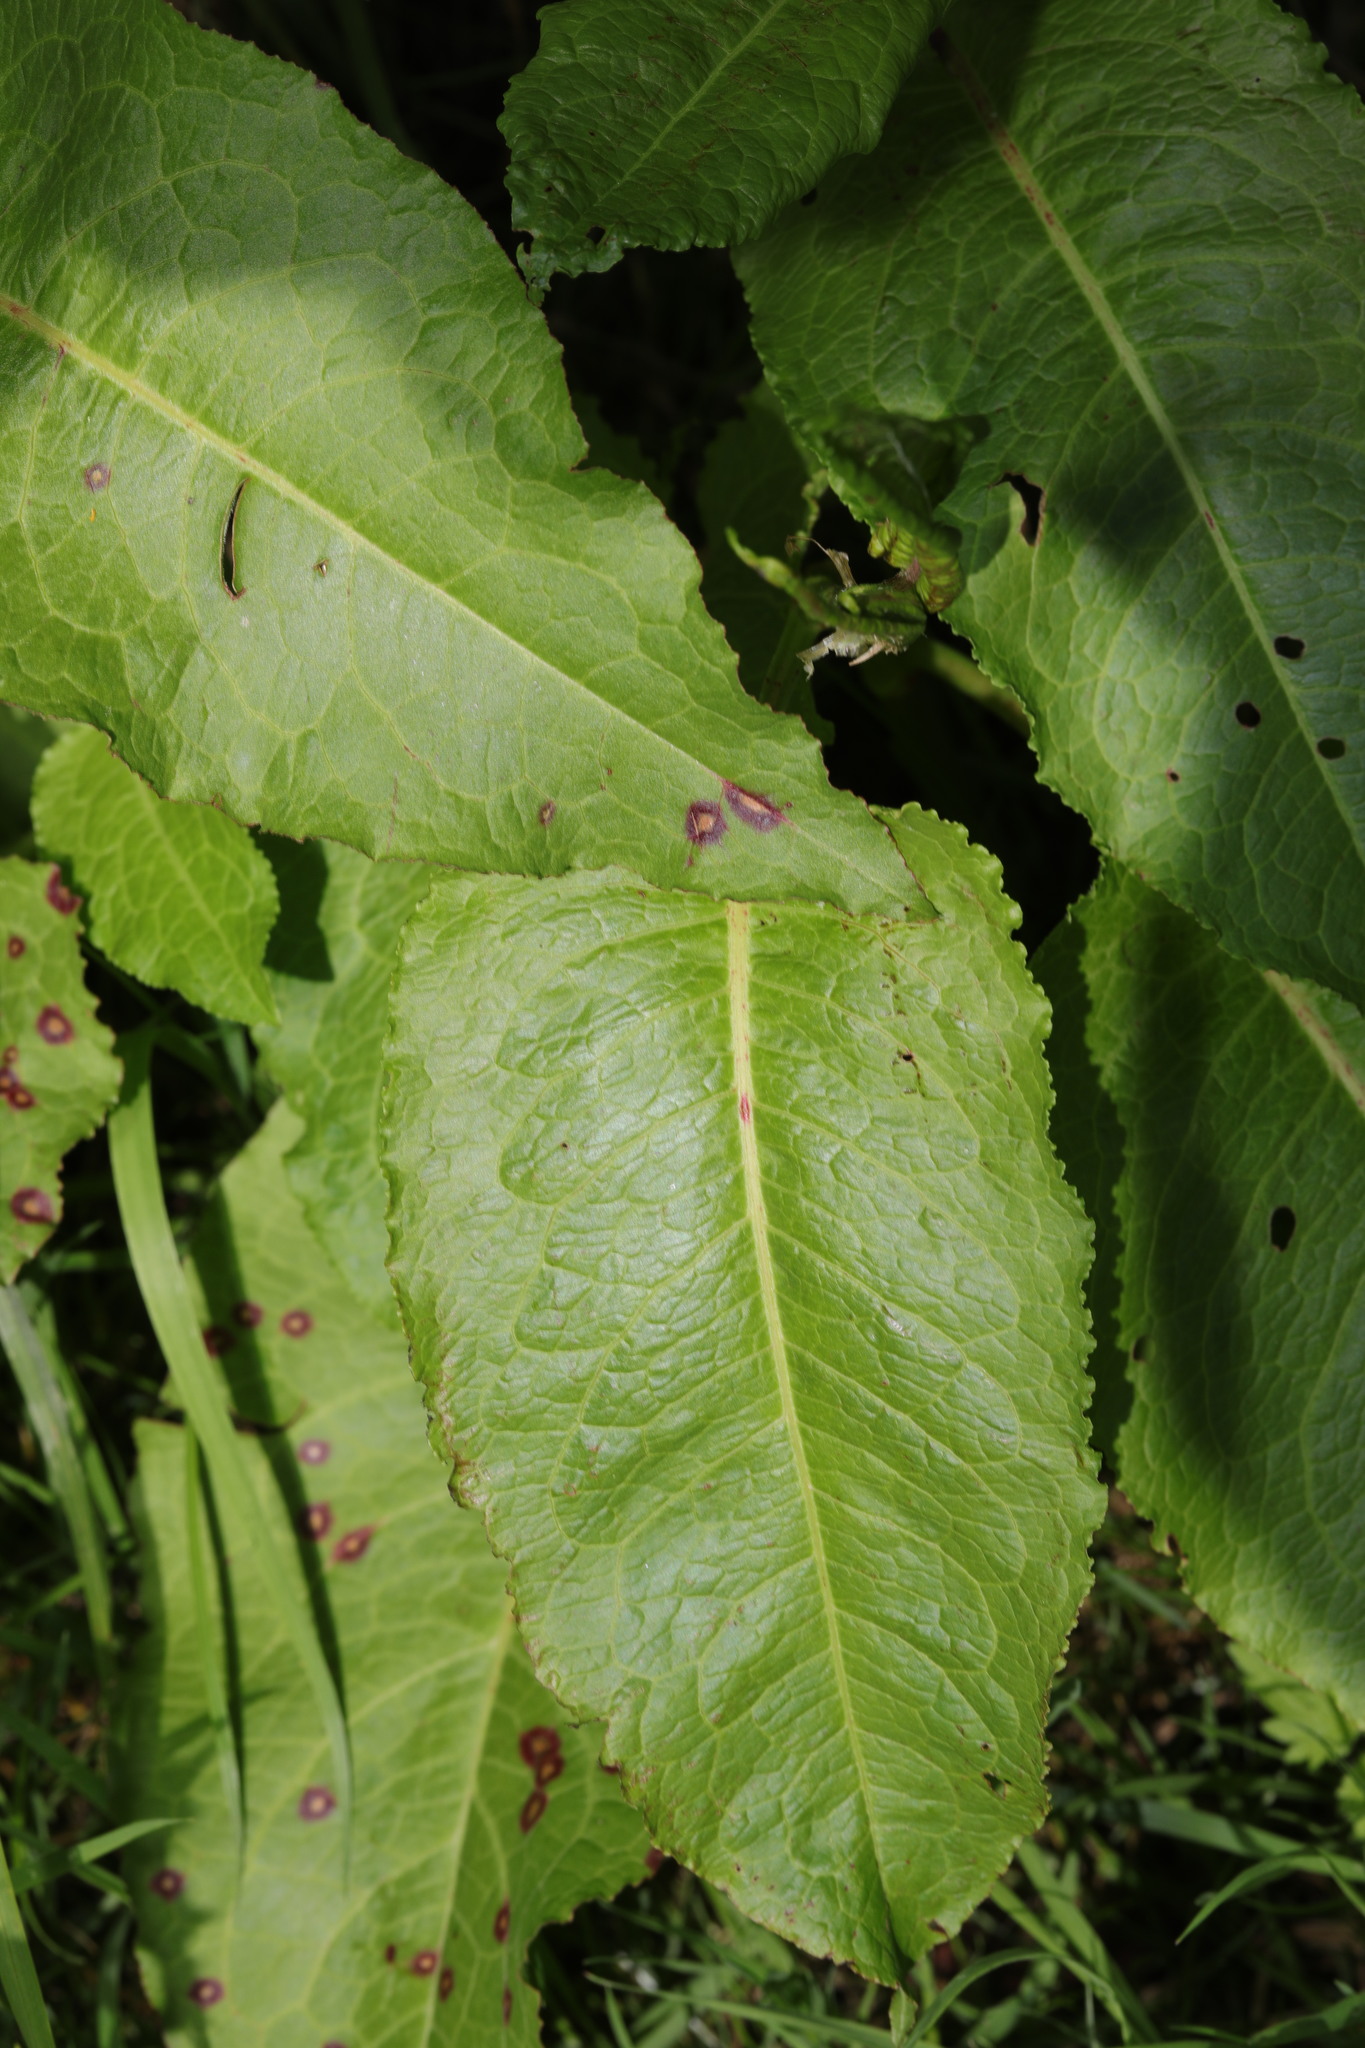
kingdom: Plantae
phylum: Tracheophyta
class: Magnoliopsida
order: Caryophyllales
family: Polygonaceae
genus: Rumex
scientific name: Rumex obtusifolius
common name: Bitter dock
